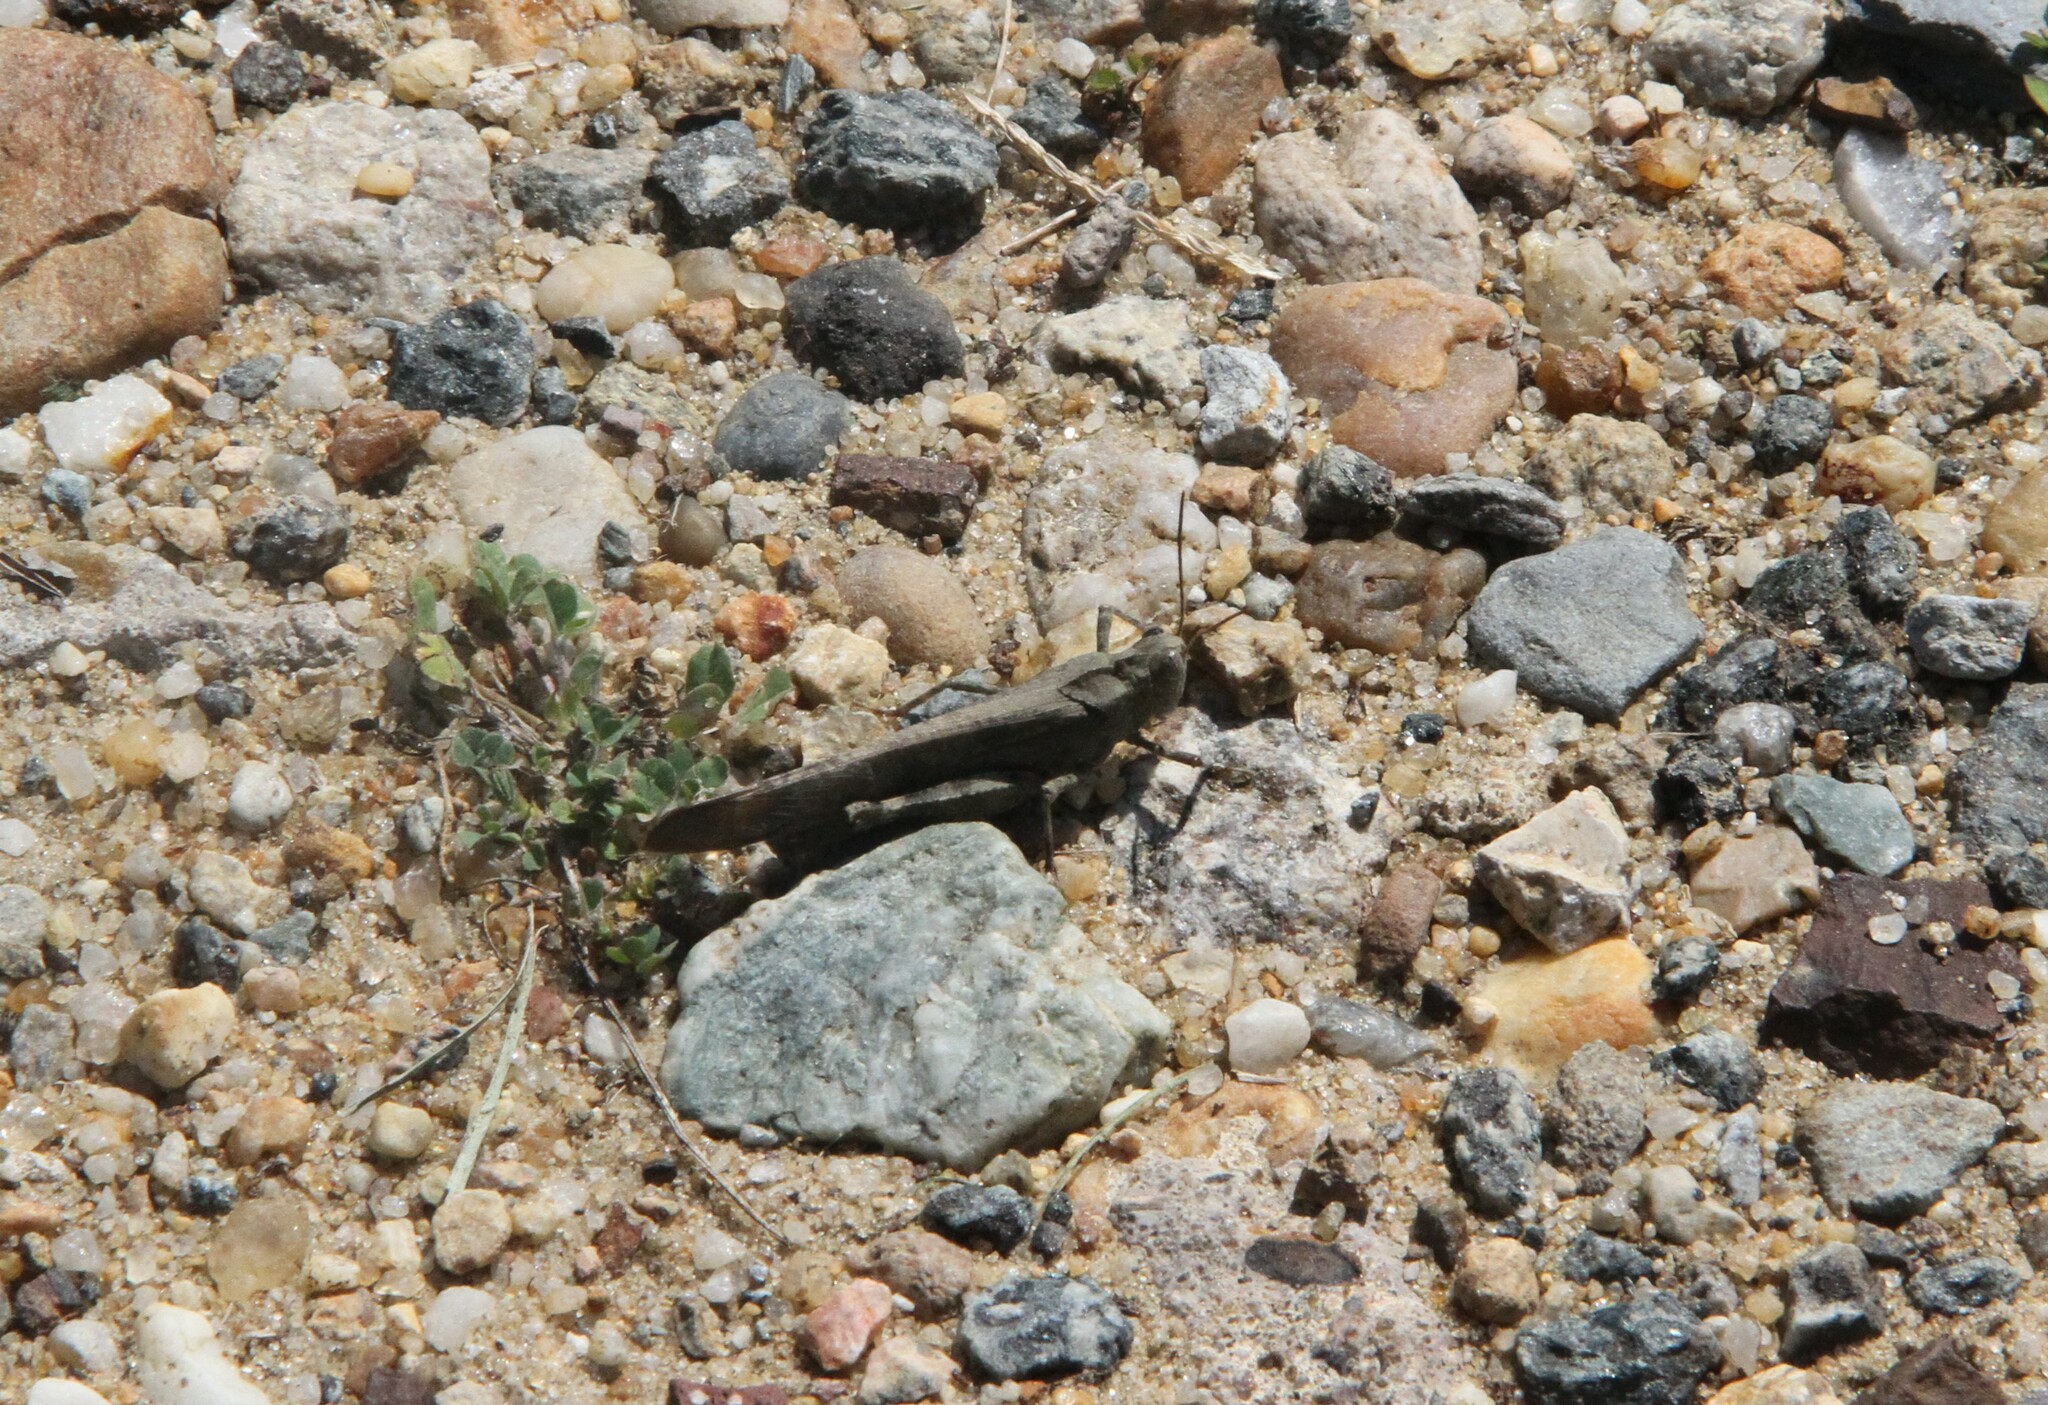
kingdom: Animalia
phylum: Arthropoda
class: Insecta
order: Orthoptera
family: Acrididae
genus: Dissosteira
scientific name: Dissosteira carolina
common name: Carolina grasshopper
